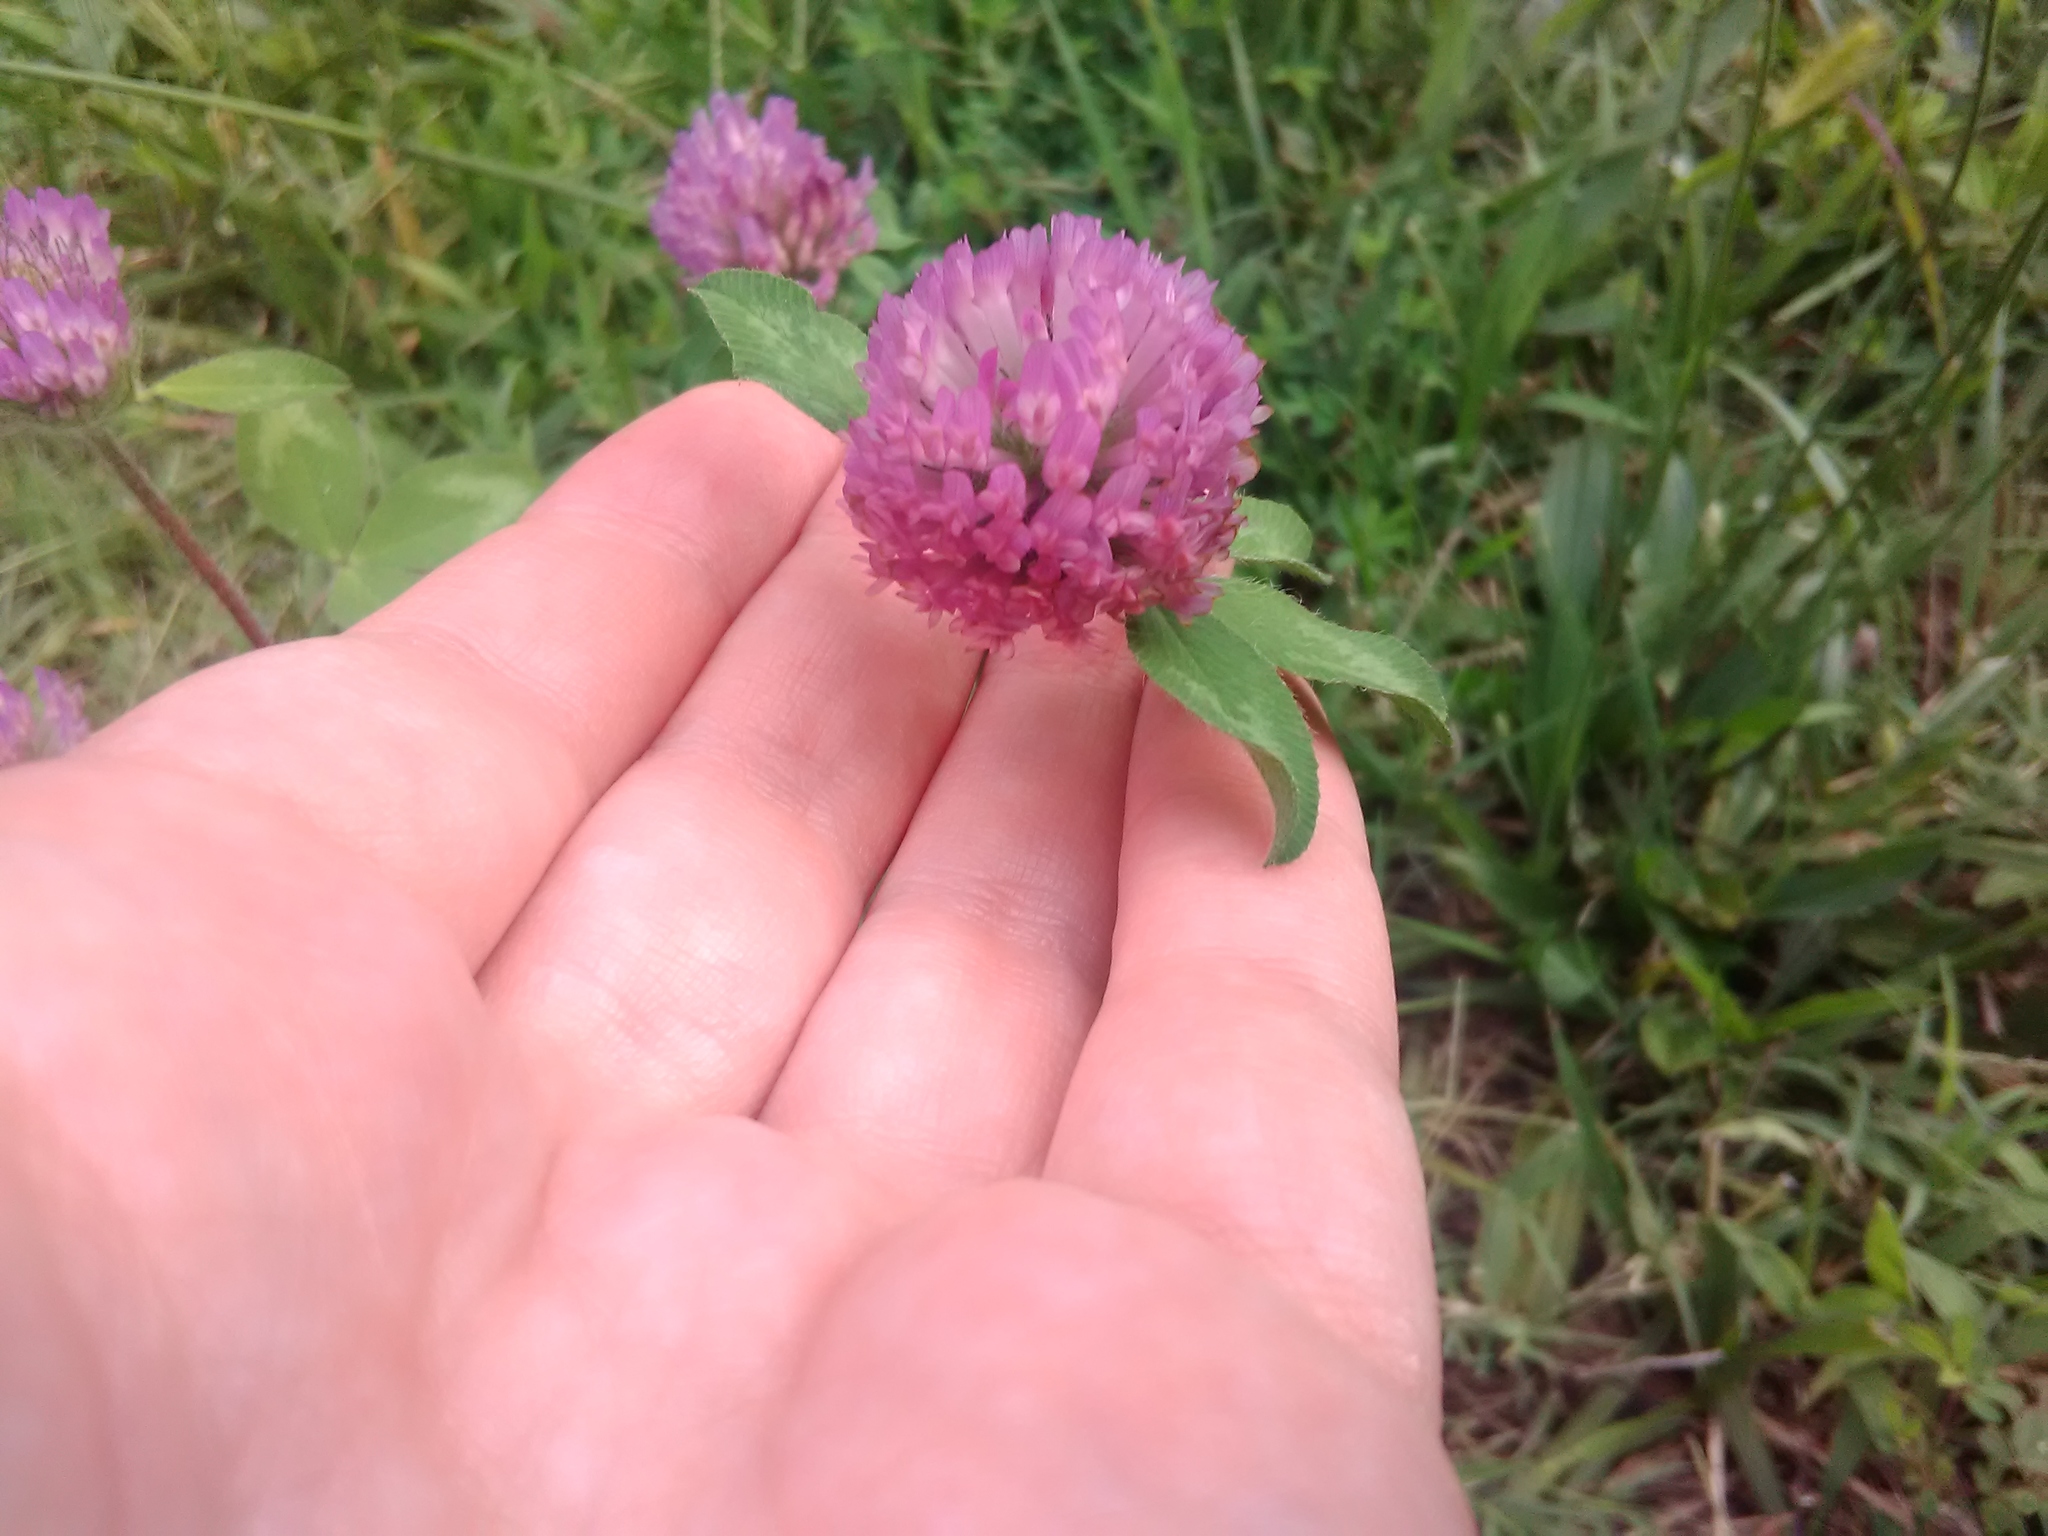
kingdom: Plantae
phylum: Tracheophyta
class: Magnoliopsida
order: Fabales
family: Fabaceae
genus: Trifolium
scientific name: Trifolium pratense
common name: Red clover
